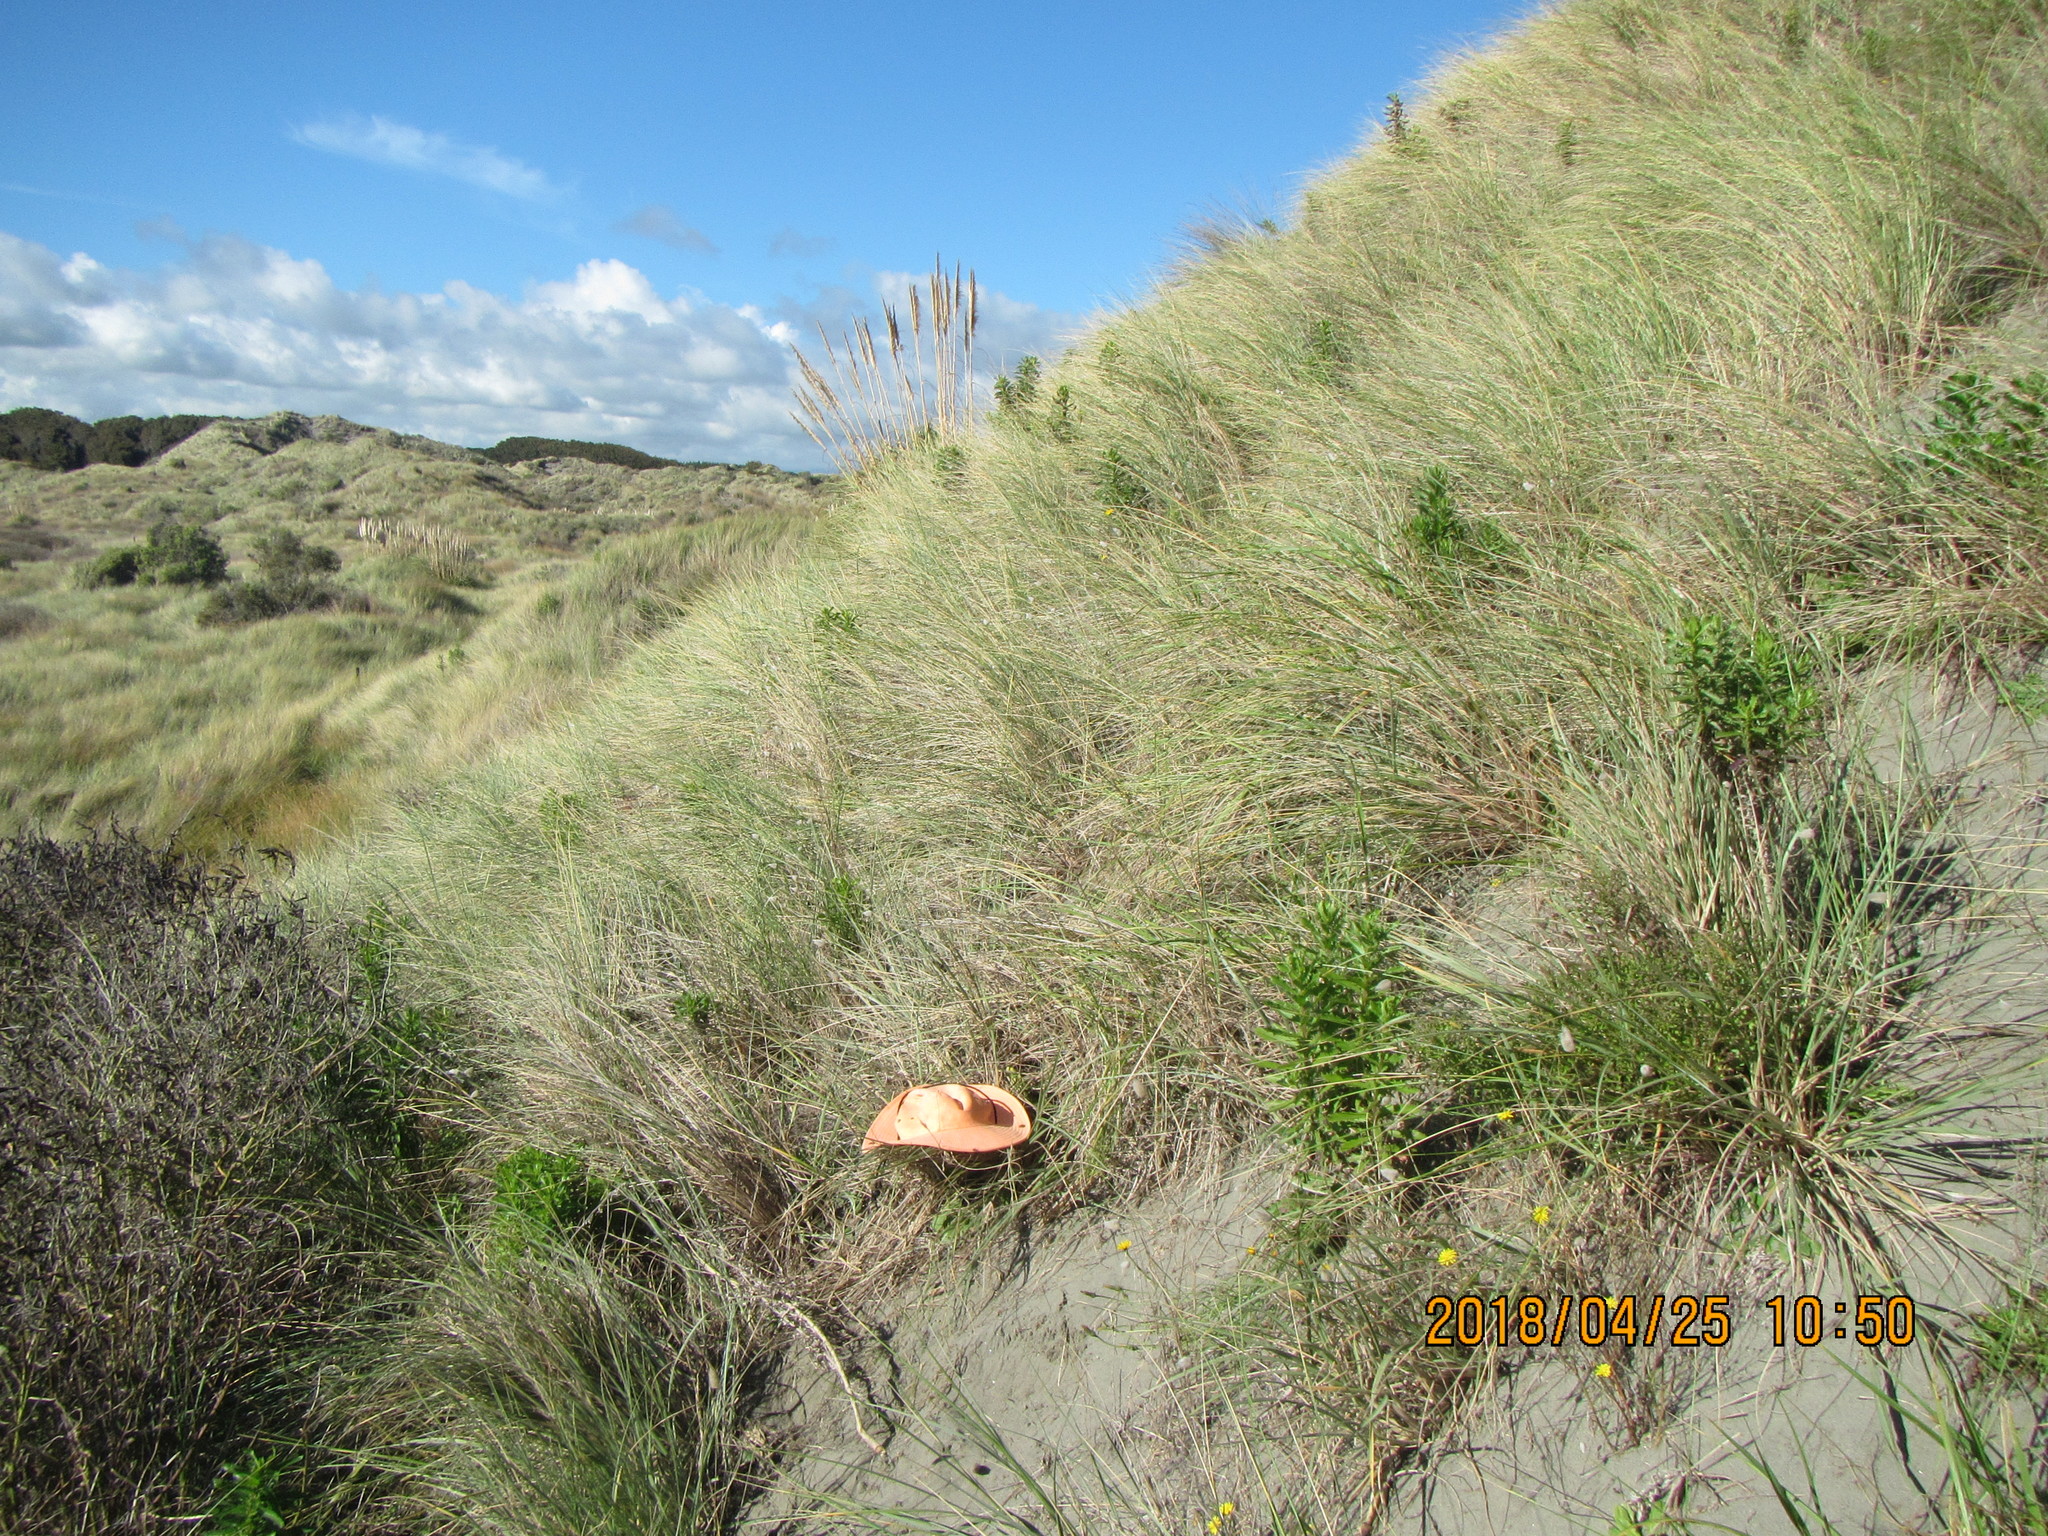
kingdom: Animalia
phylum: Arthropoda
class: Arachnida
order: Araneae
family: Theridiidae
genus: Latrodectus
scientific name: Latrodectus katipo
